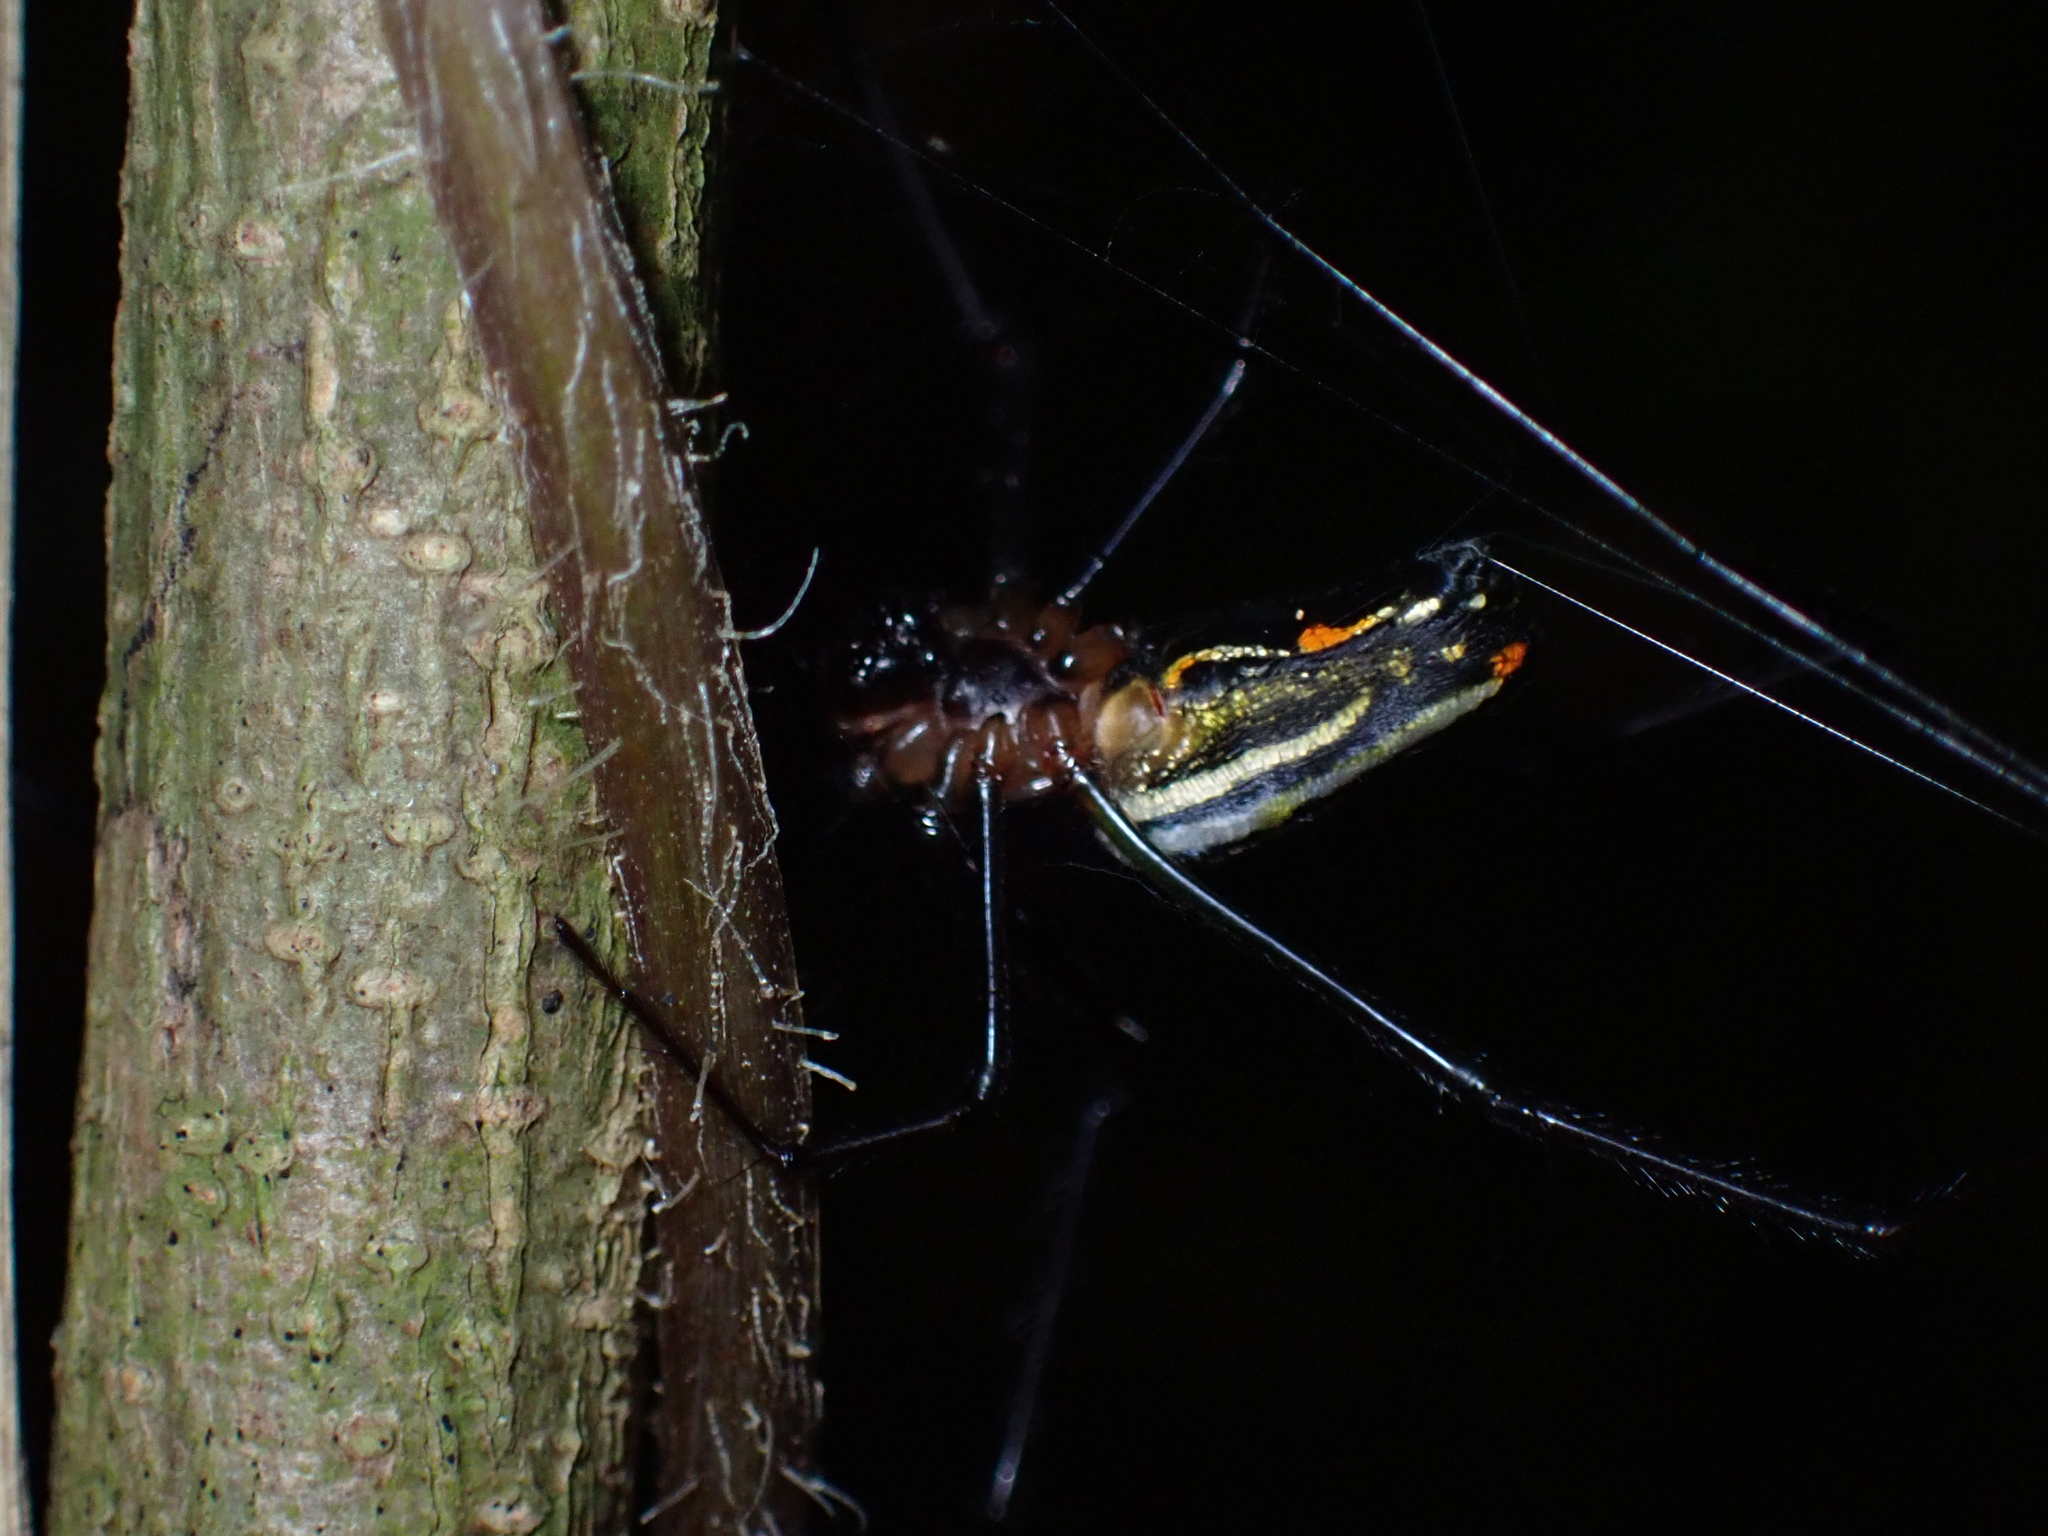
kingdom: Animalia
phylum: Arthropoda
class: Arachnida
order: Araneae
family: Tetragnathidae
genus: Leucauge
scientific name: Leucauge hebridisiana
